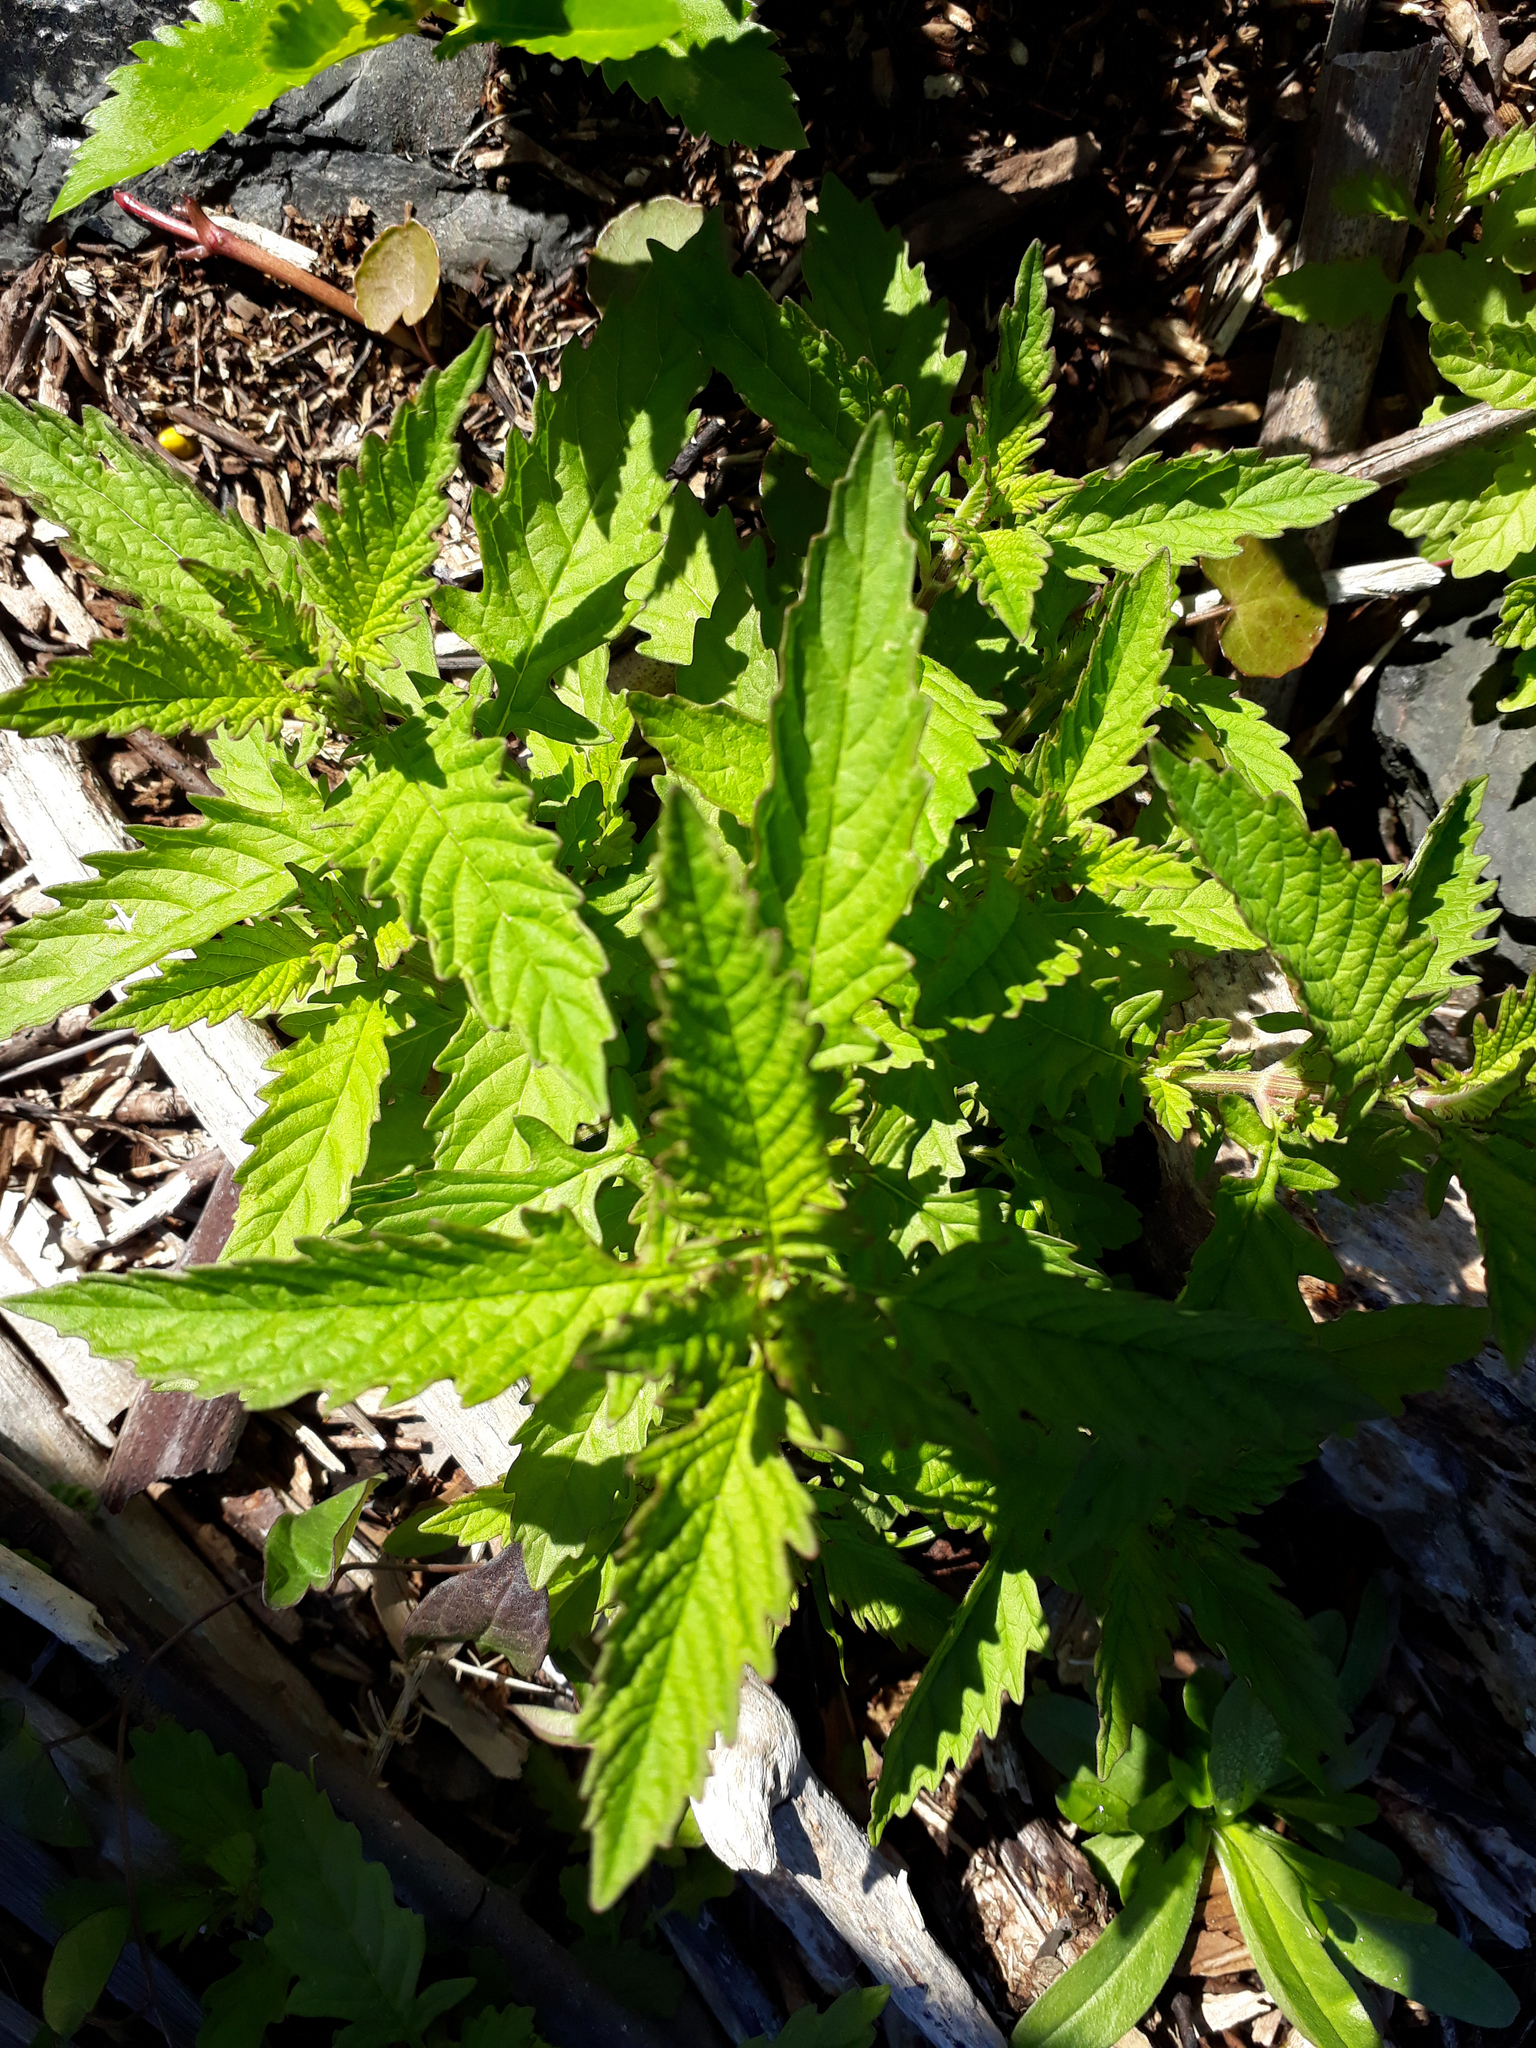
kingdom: Plantae
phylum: Tracheophyta
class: Magnoliopsida
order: Lamiales
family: Lamiaceae
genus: Lycopus
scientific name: Lycopus europaeus
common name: European bugleweed
